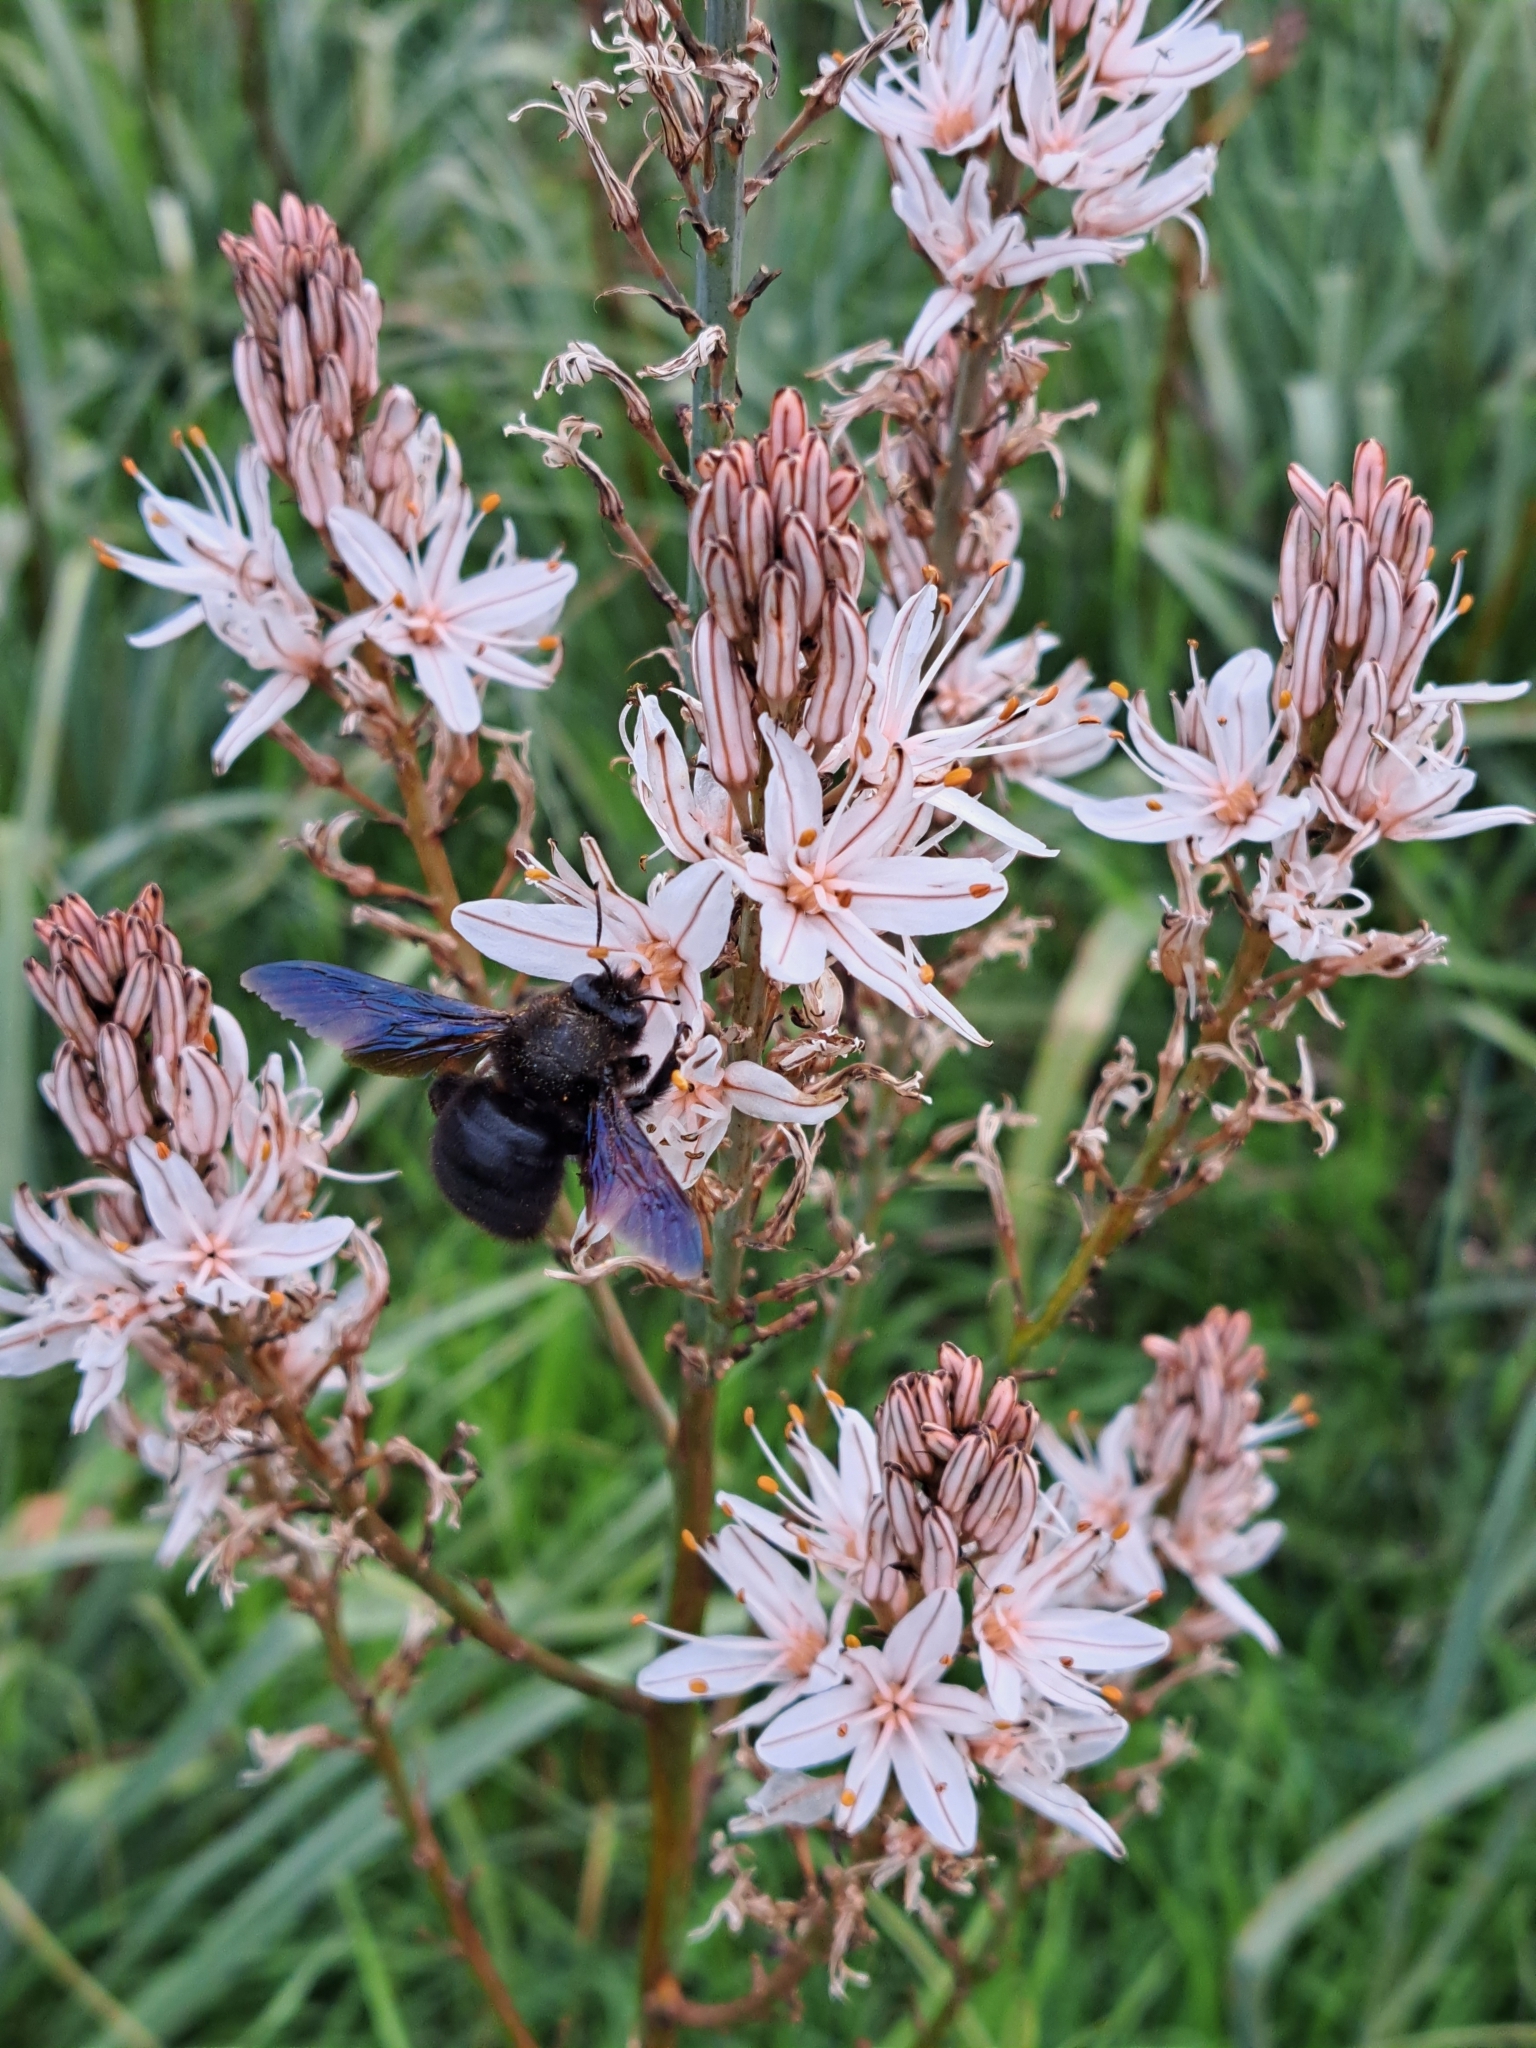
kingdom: Animalia
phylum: Arthropoda
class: Insecta
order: Hymenoptera
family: Apidae
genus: Xylocopa
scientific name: Xylocopa violacea
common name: Violet carpenter bee
